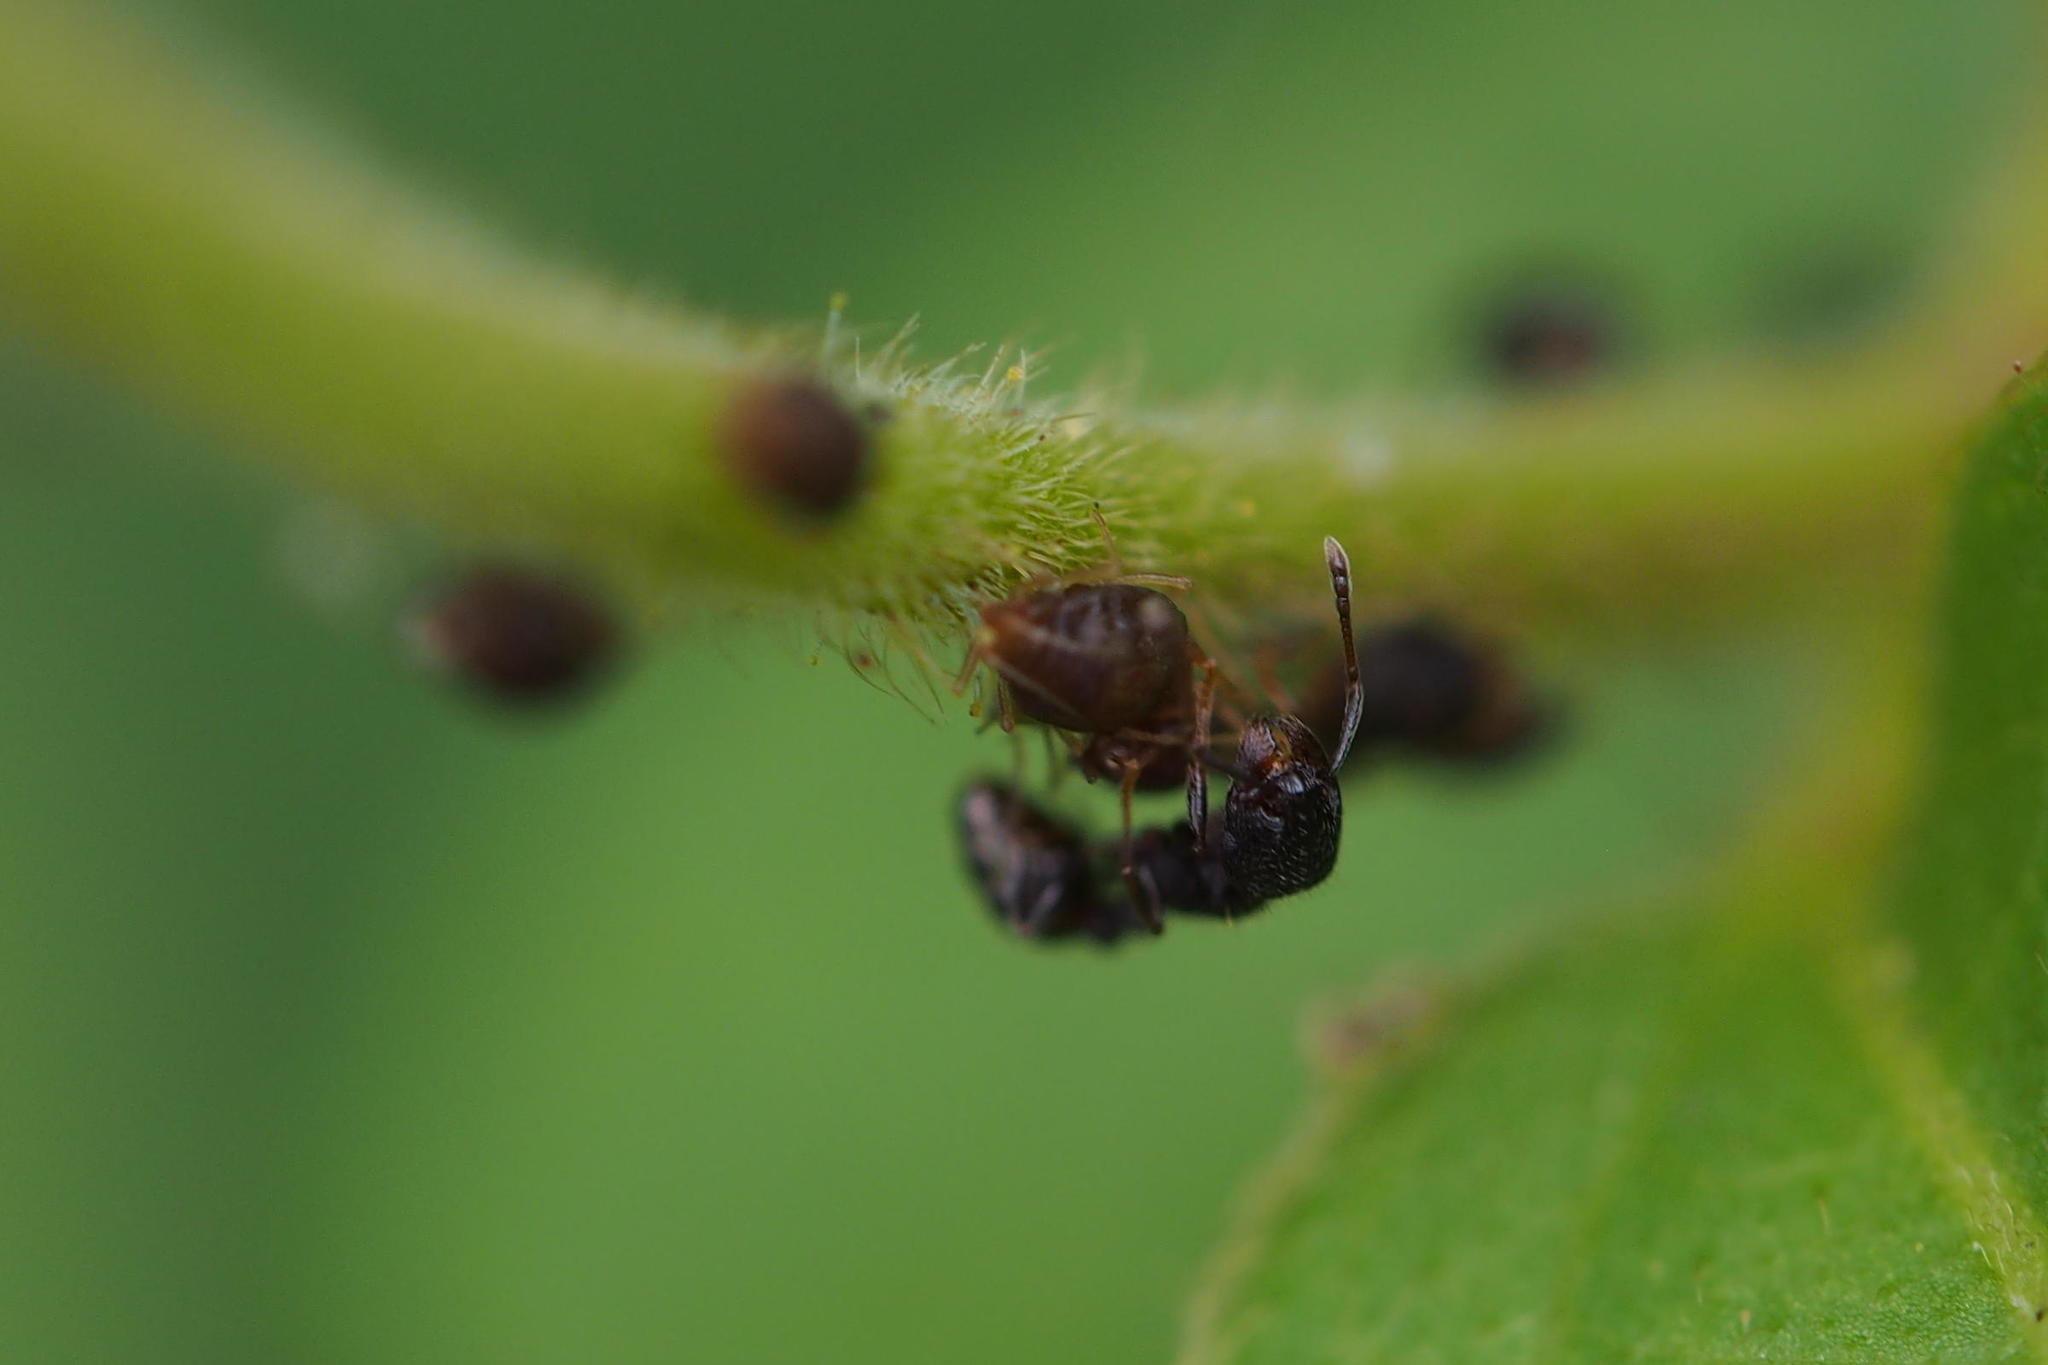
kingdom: Animalia
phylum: Arthropoda
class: Insecta
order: Hymenoptera
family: Formicidae
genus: Tetramorium
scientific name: Tetramorium tsushimae
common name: Ant
